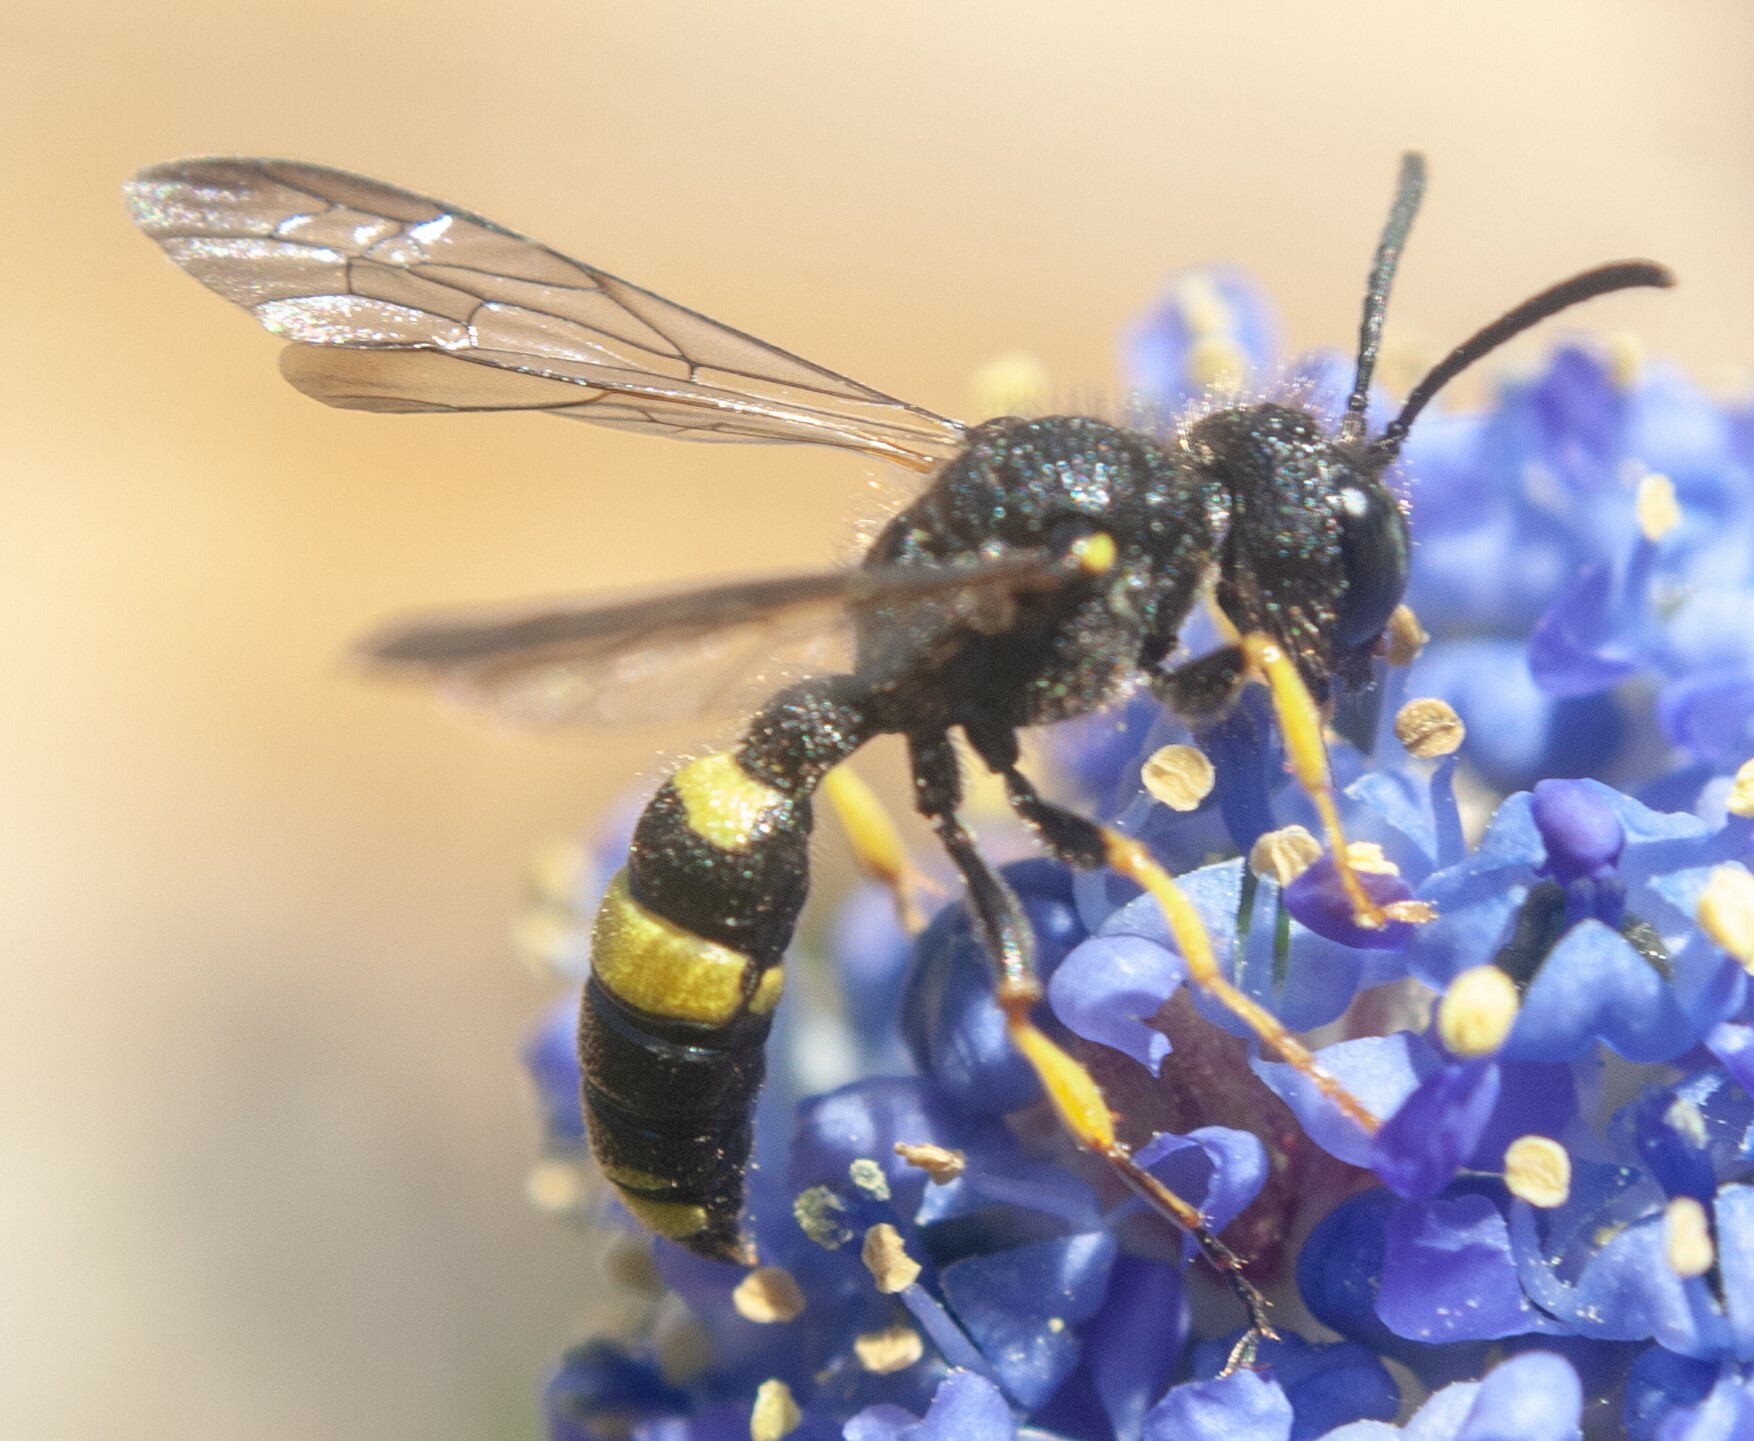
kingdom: Animalia
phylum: Arthropoda
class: Insecta
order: Hymenoptera
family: Crabronidae
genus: Cerceris
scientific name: Cerceris rybyensis
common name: Ornate tailed digger wasp
